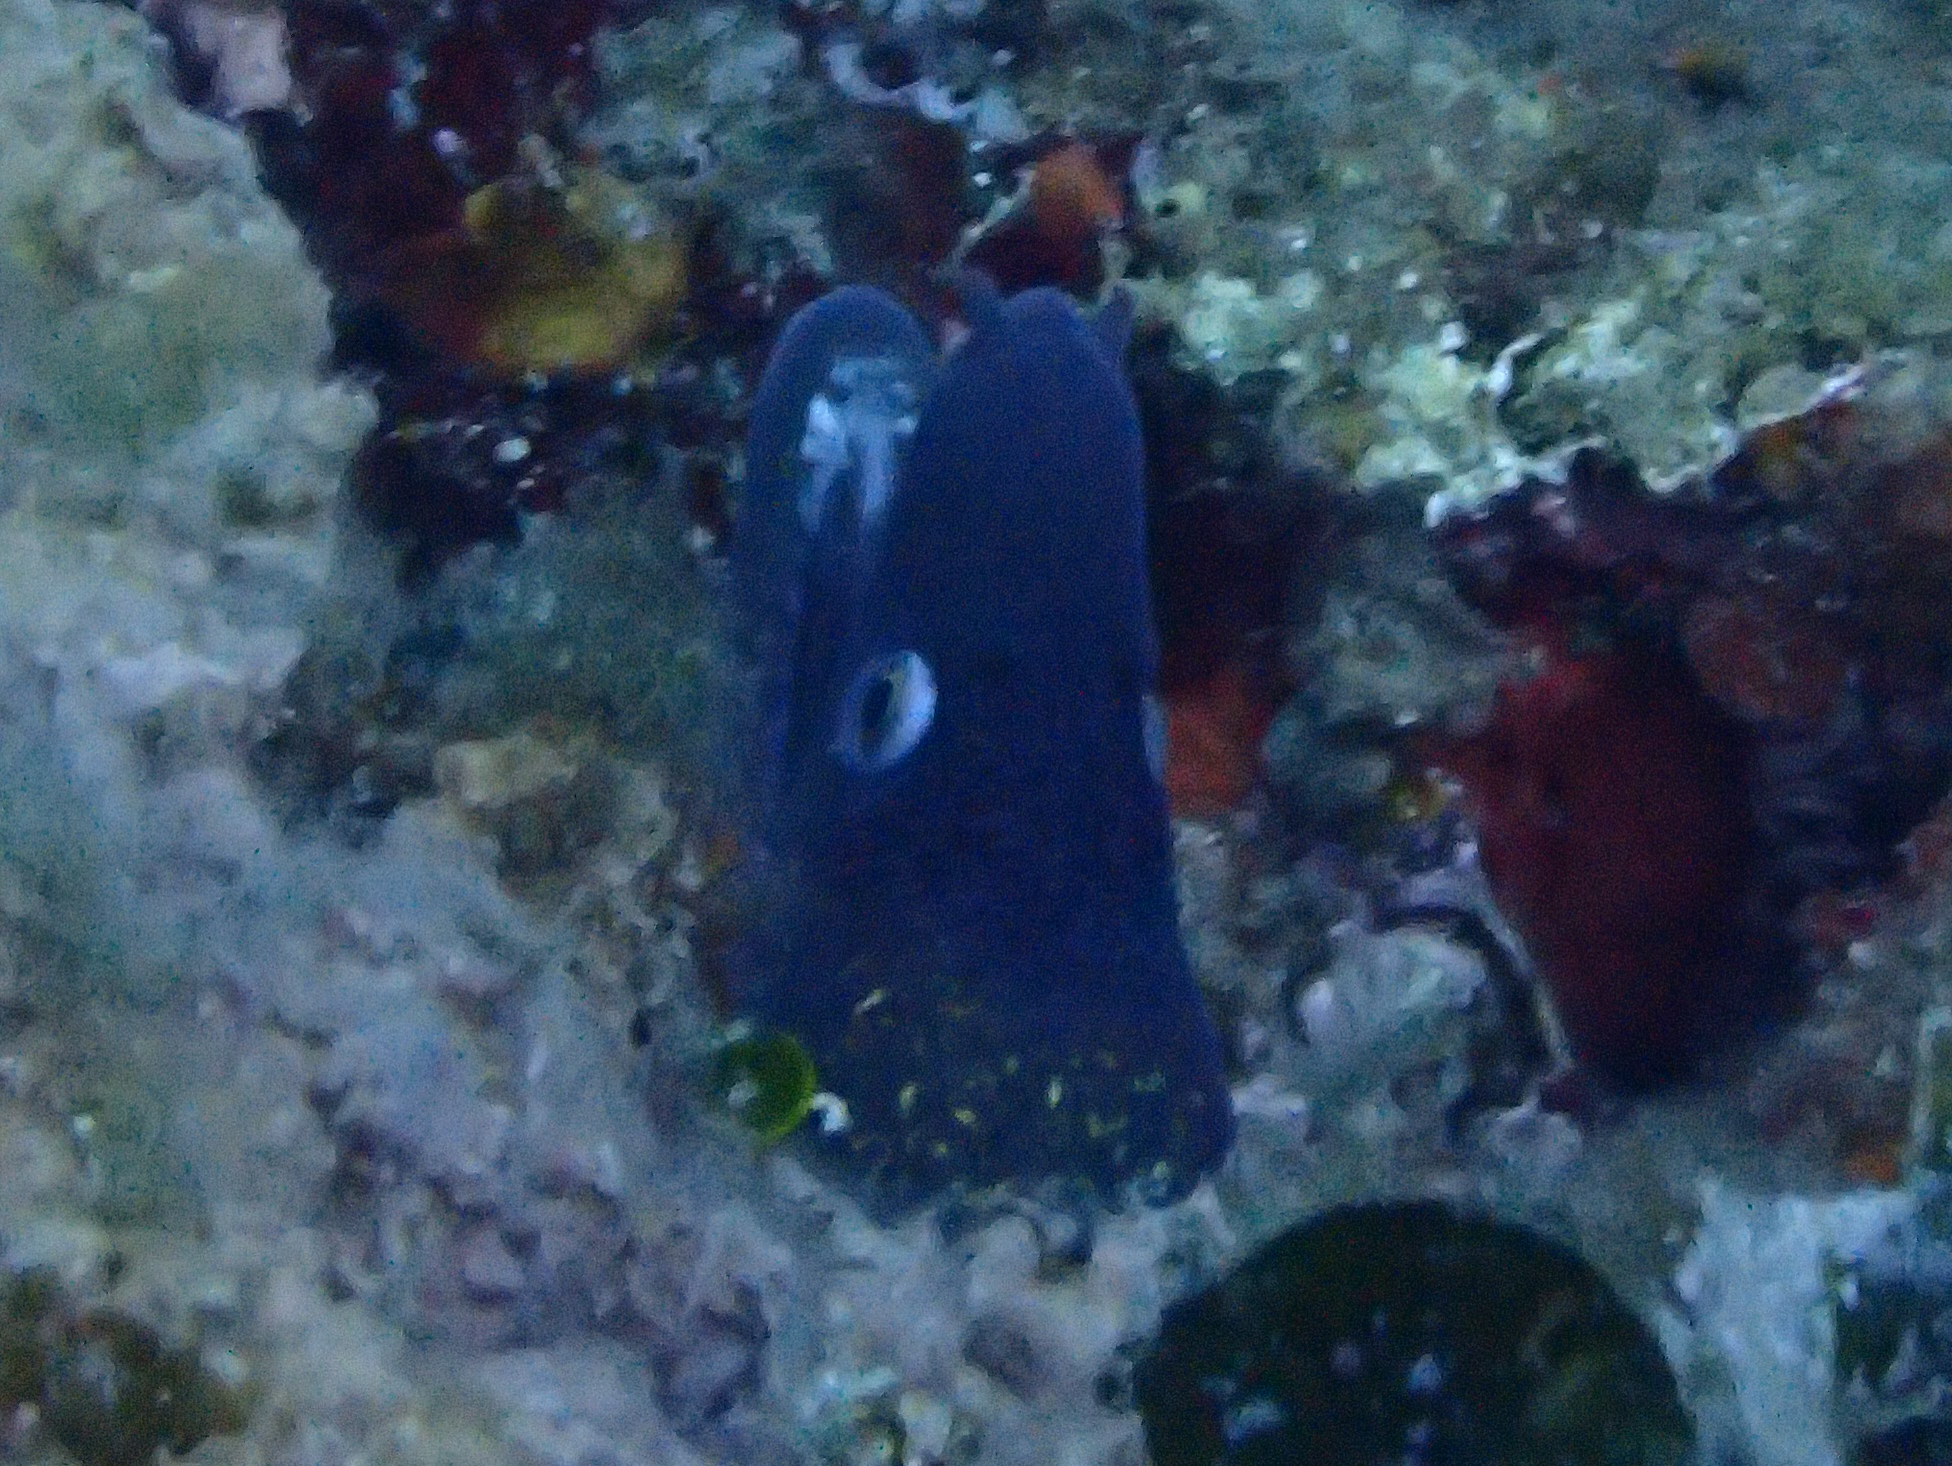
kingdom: Animalia
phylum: Chordata
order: Anguilliformes
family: Muraenidae
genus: Muraena
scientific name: Muraena helena
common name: Mediterranean moray
